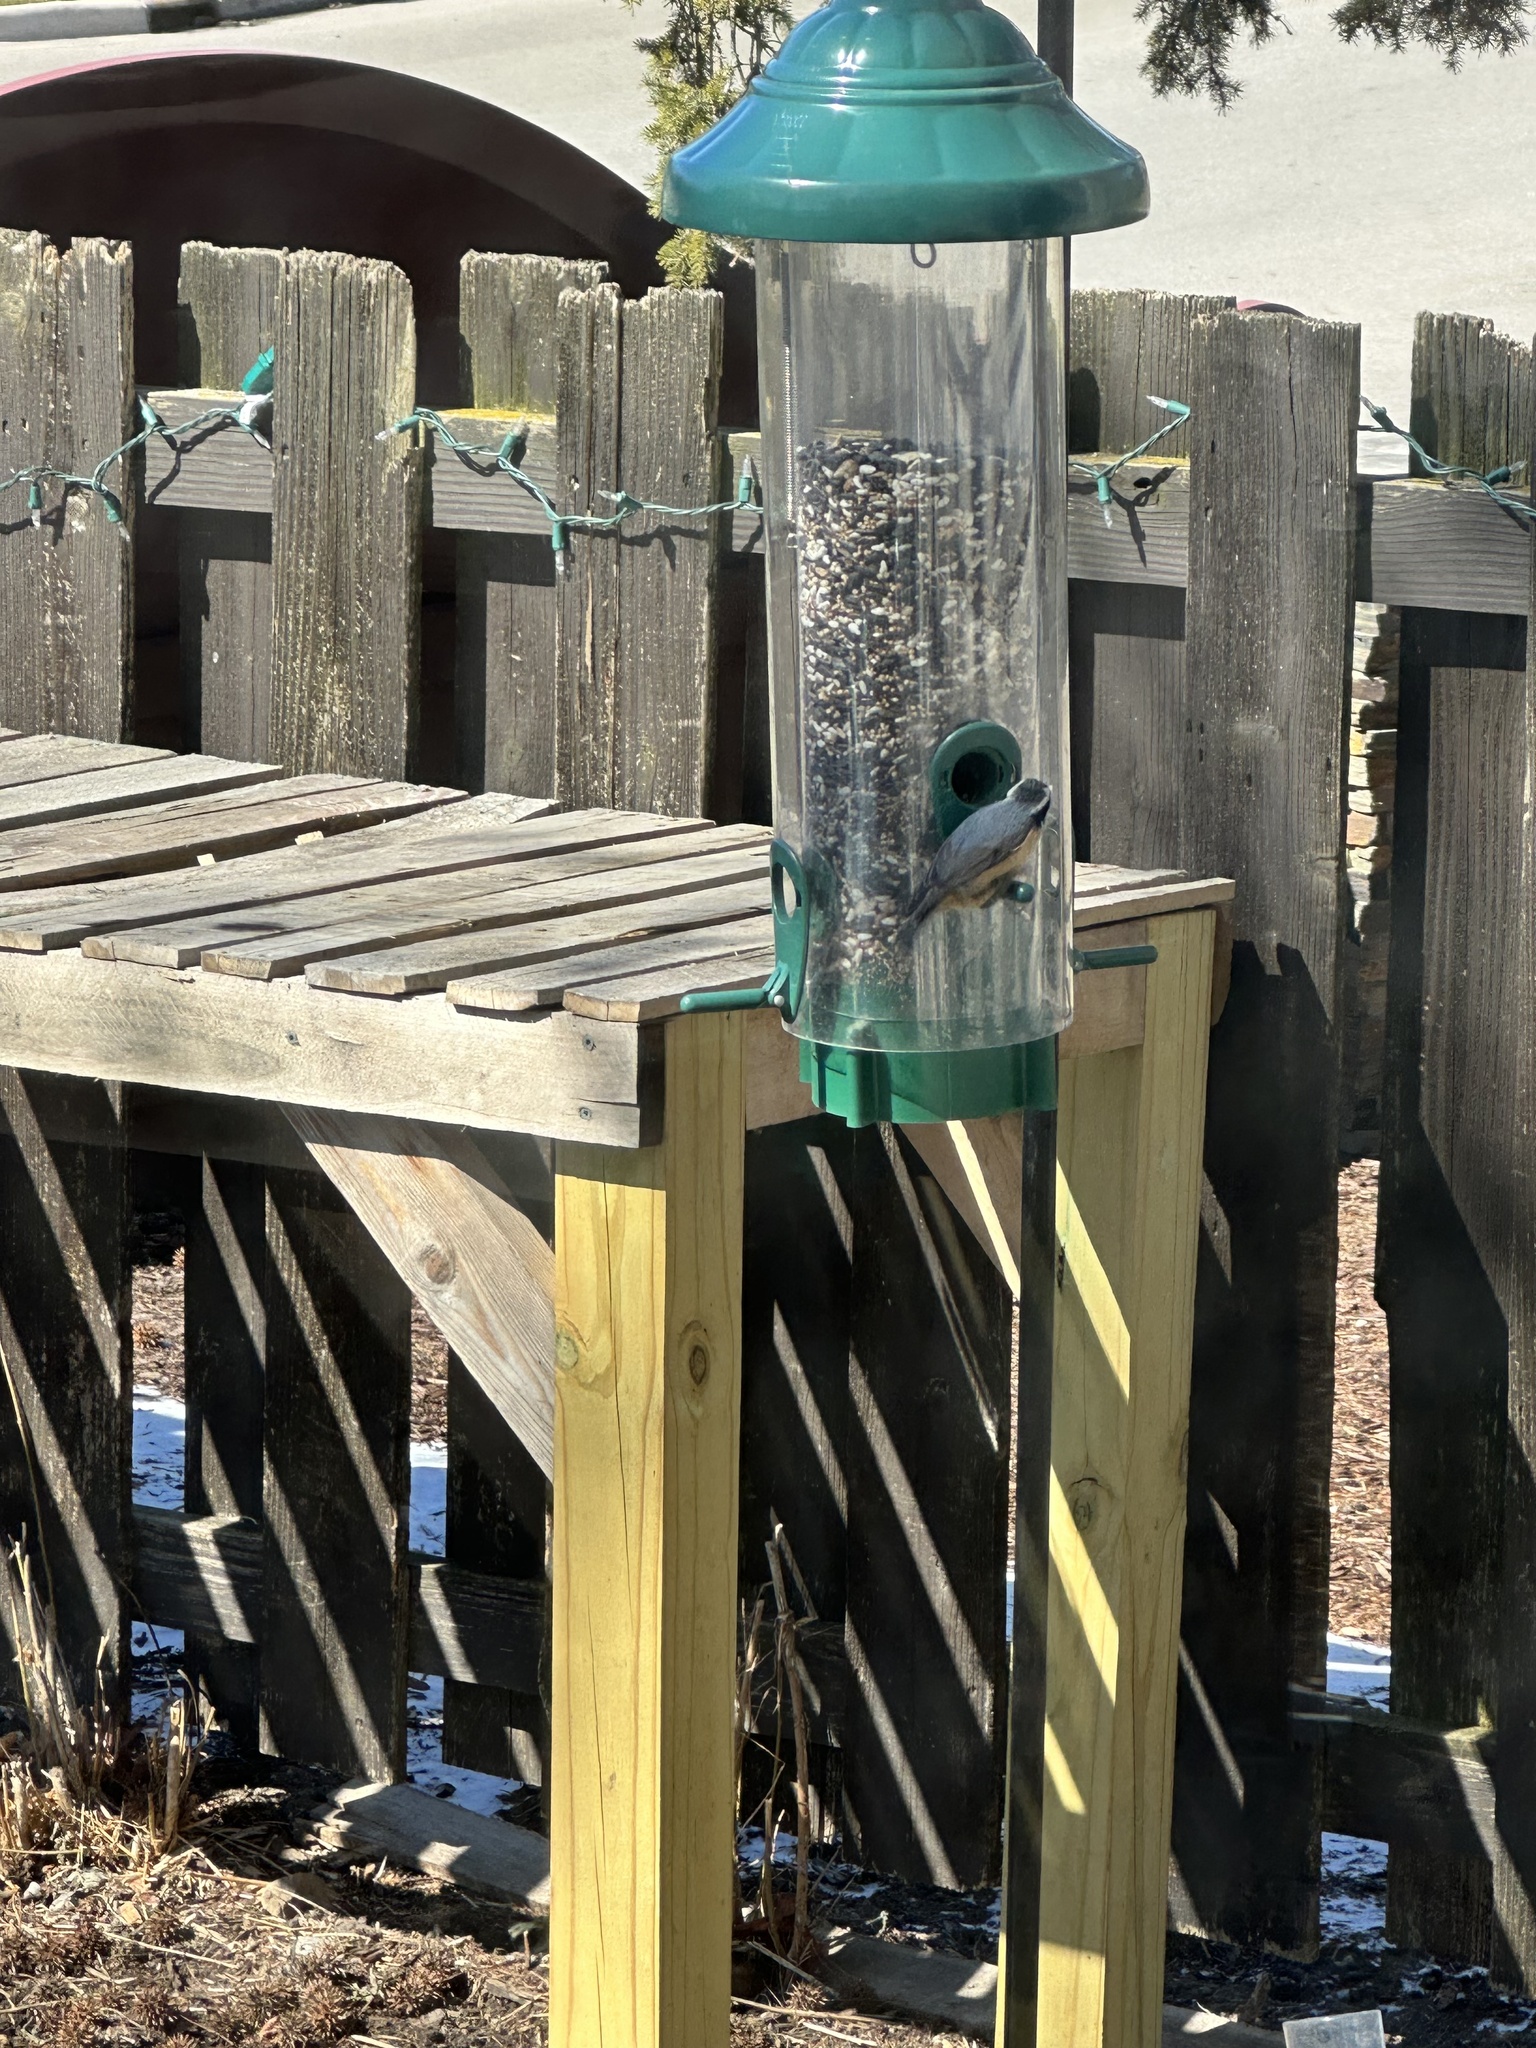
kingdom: Animalia
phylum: Chordata
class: Aves
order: Passeriformes
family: Sittidae
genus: Sitta
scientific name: Sitta canadensis
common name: Red-breasted nuthatch
